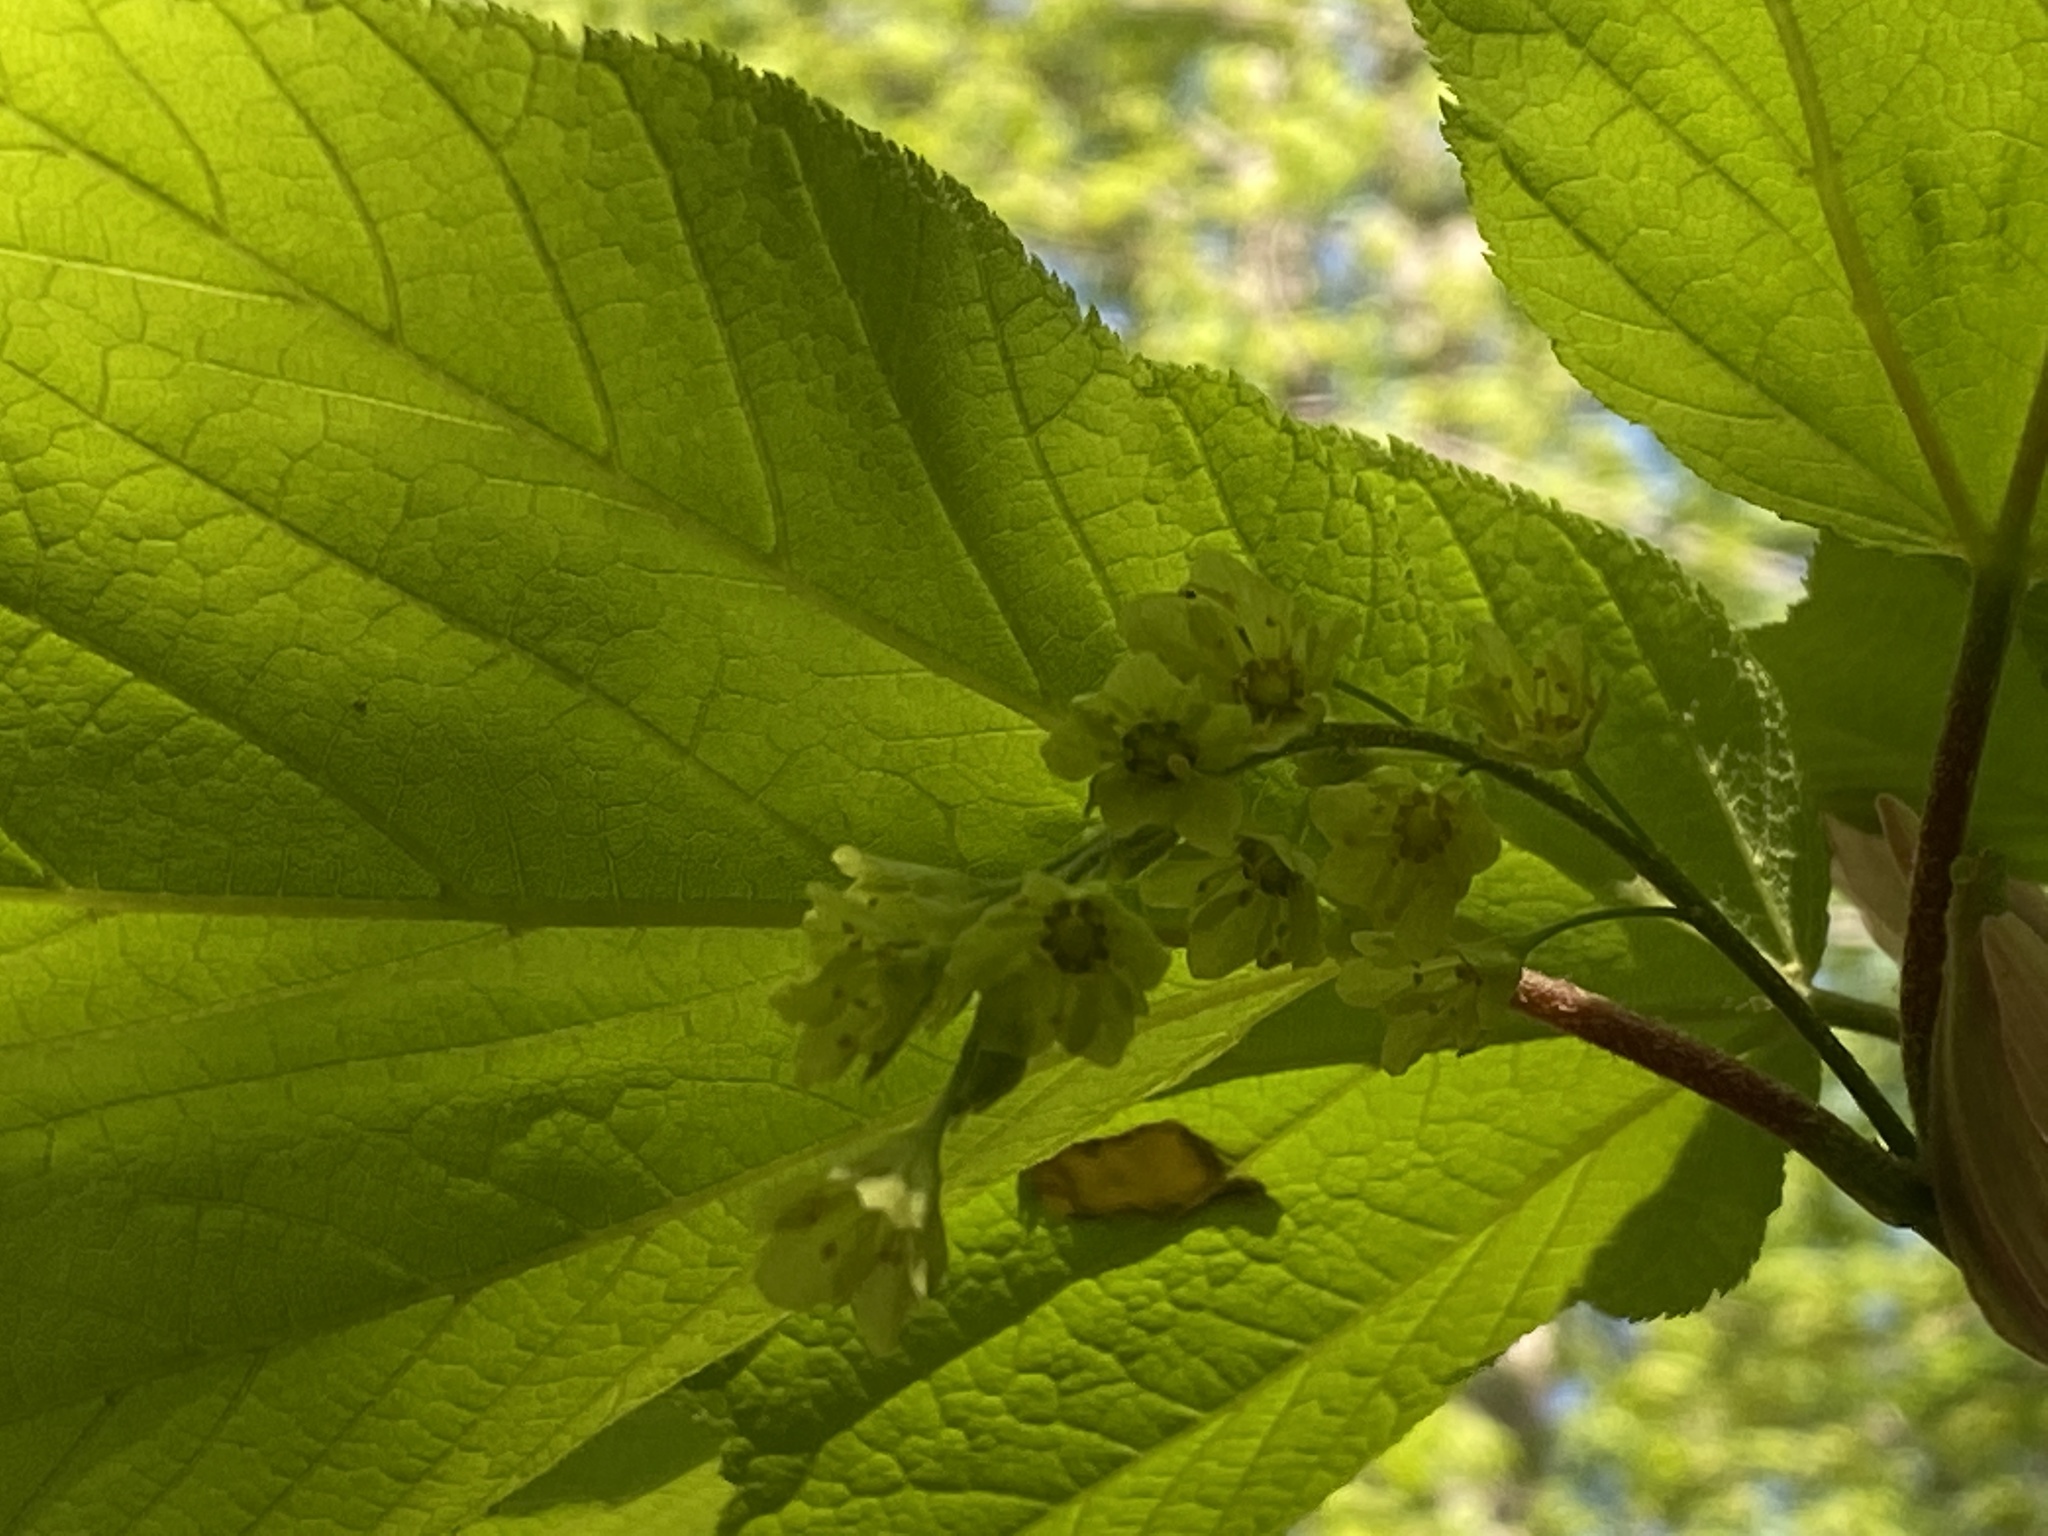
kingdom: Plantae
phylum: Tracheophyta
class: Magnoliopsida
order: Sapindales
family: Sapindaceae
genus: Acer
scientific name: Acer pensylvanicum
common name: Moosewood
